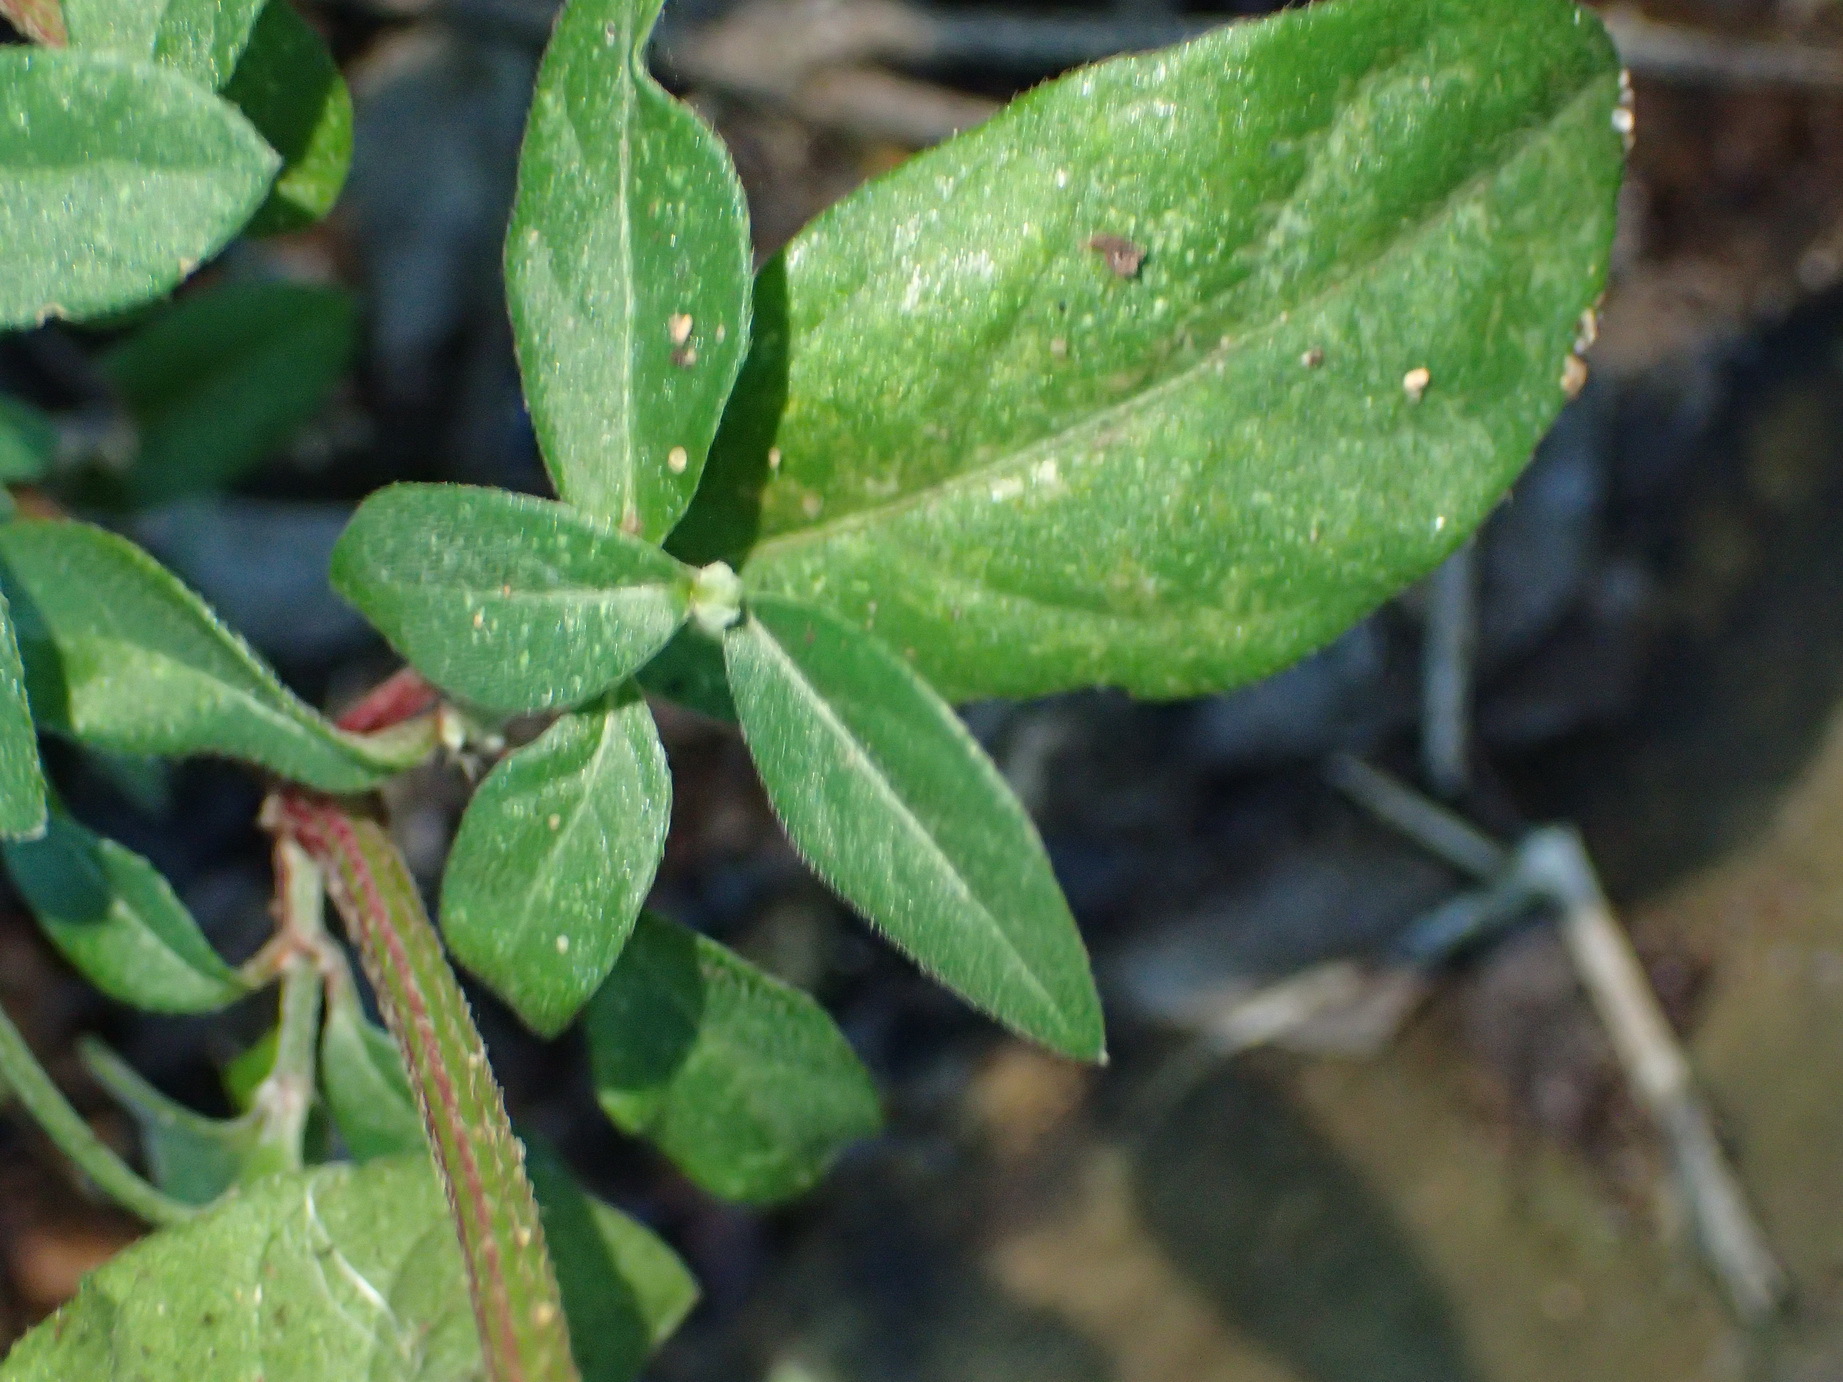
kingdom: Plantae
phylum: Tracheophyta
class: Magnoliopsida
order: Caryophyllales
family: Amaranthaceae
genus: Achyranthes
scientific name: Achyranthes aspera
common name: Devil's horsewhip
